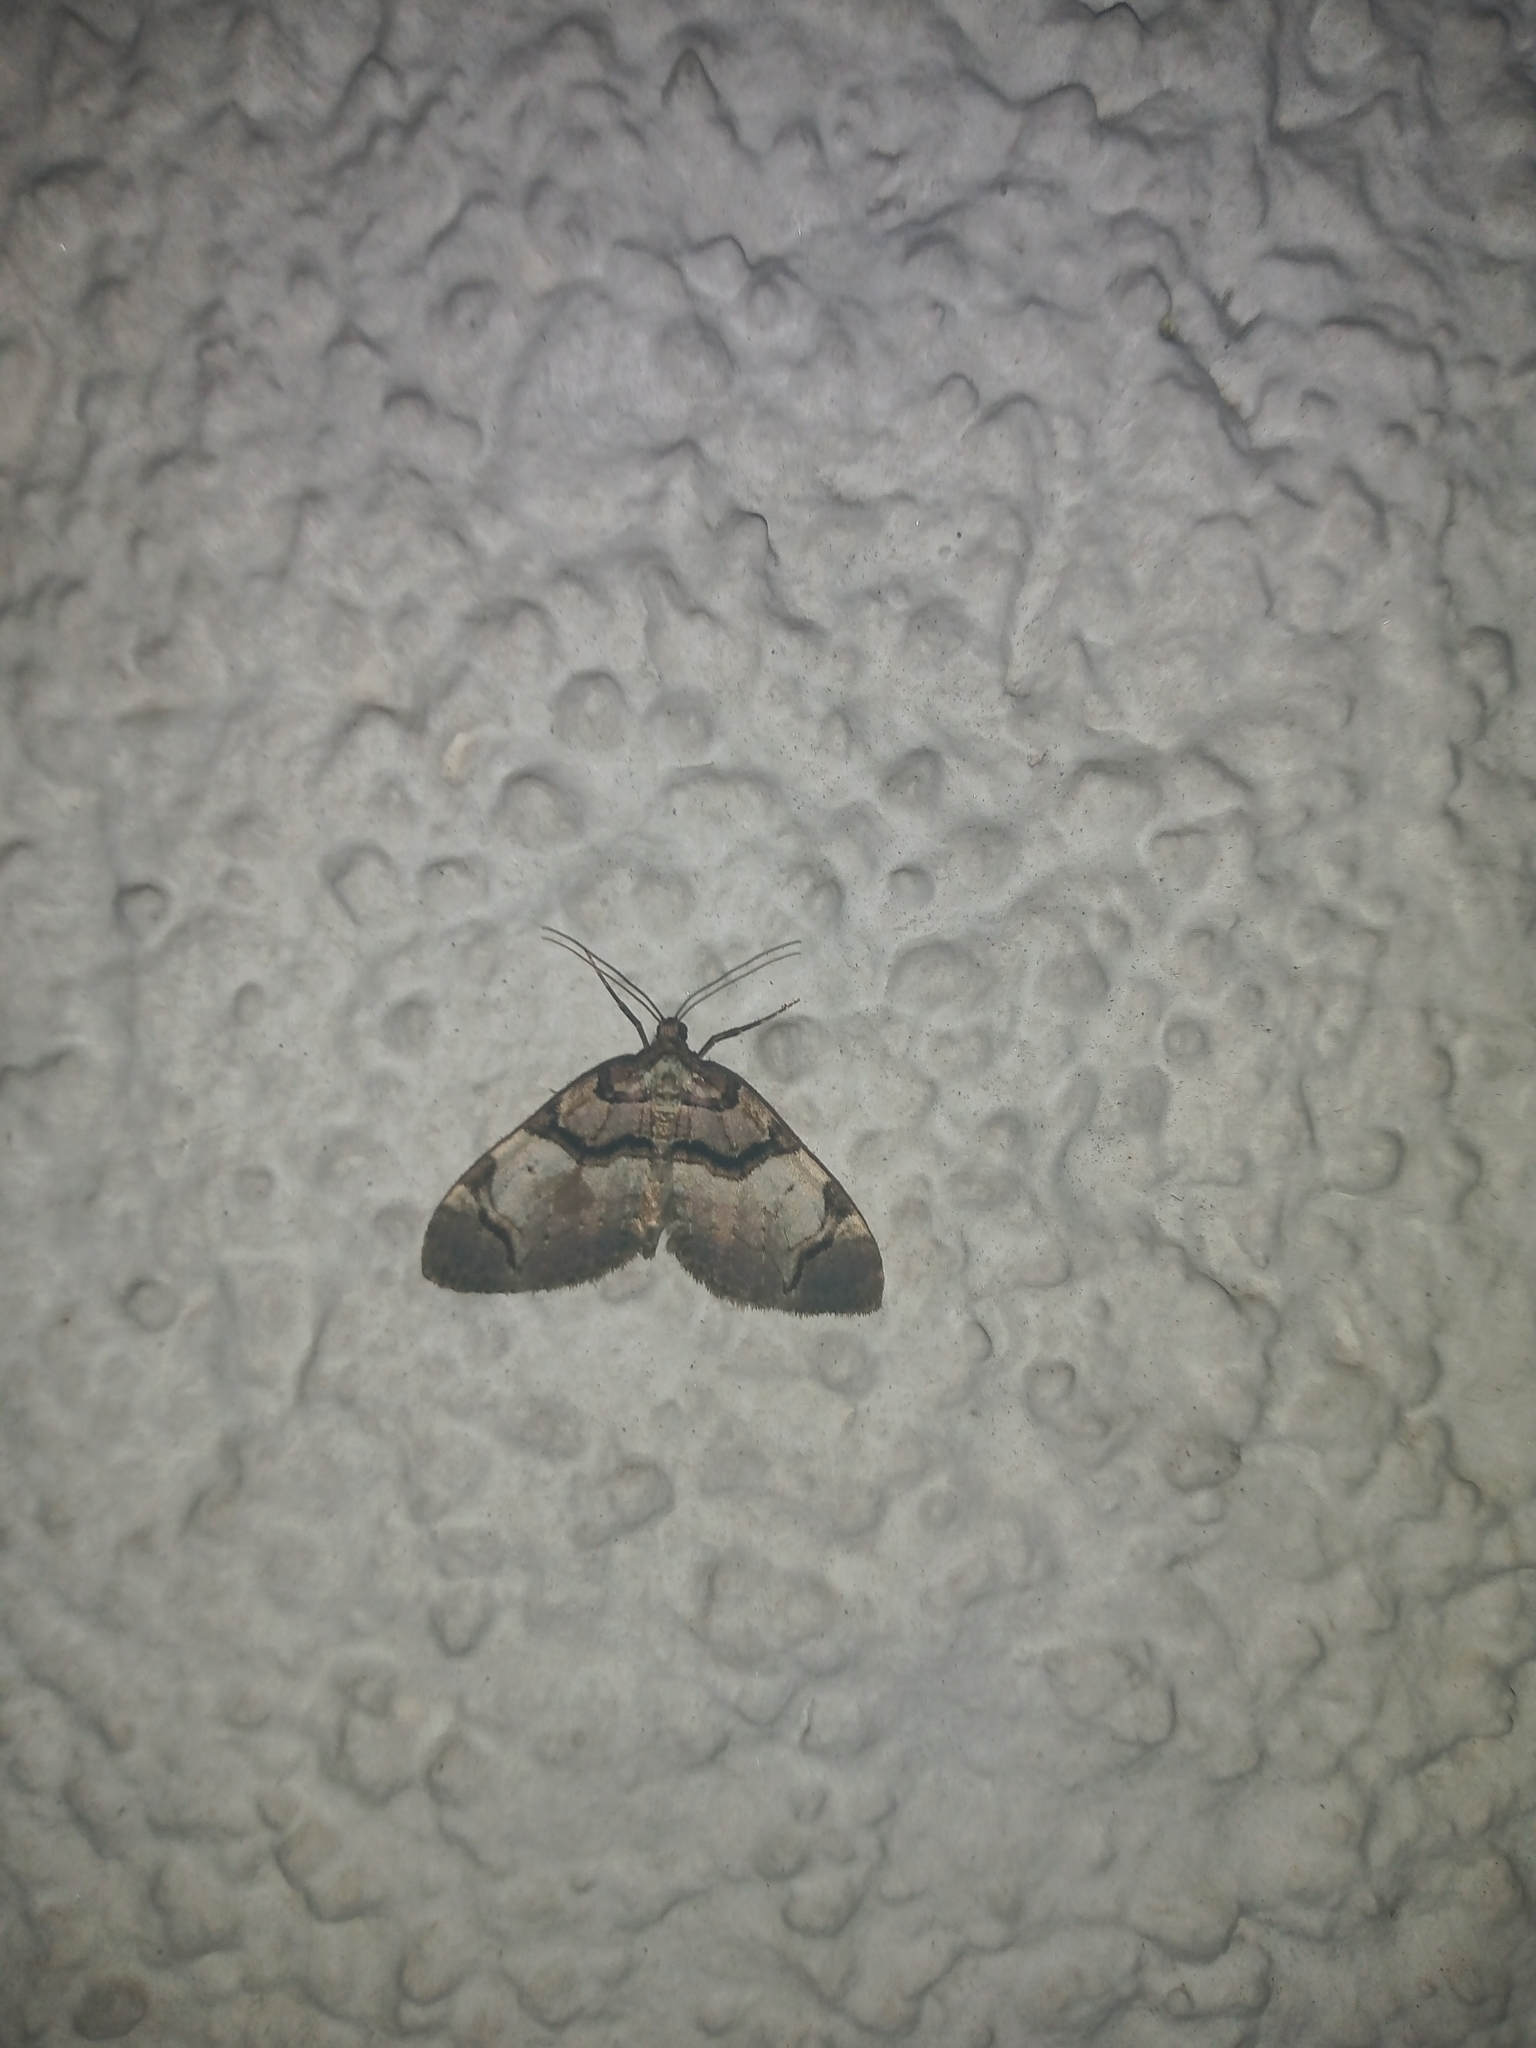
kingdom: Animalia
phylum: Arthropoda
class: Insecta
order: Lepidoptera
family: Geometridae
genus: Anticlea
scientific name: Anticlea derivata
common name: Streamer
